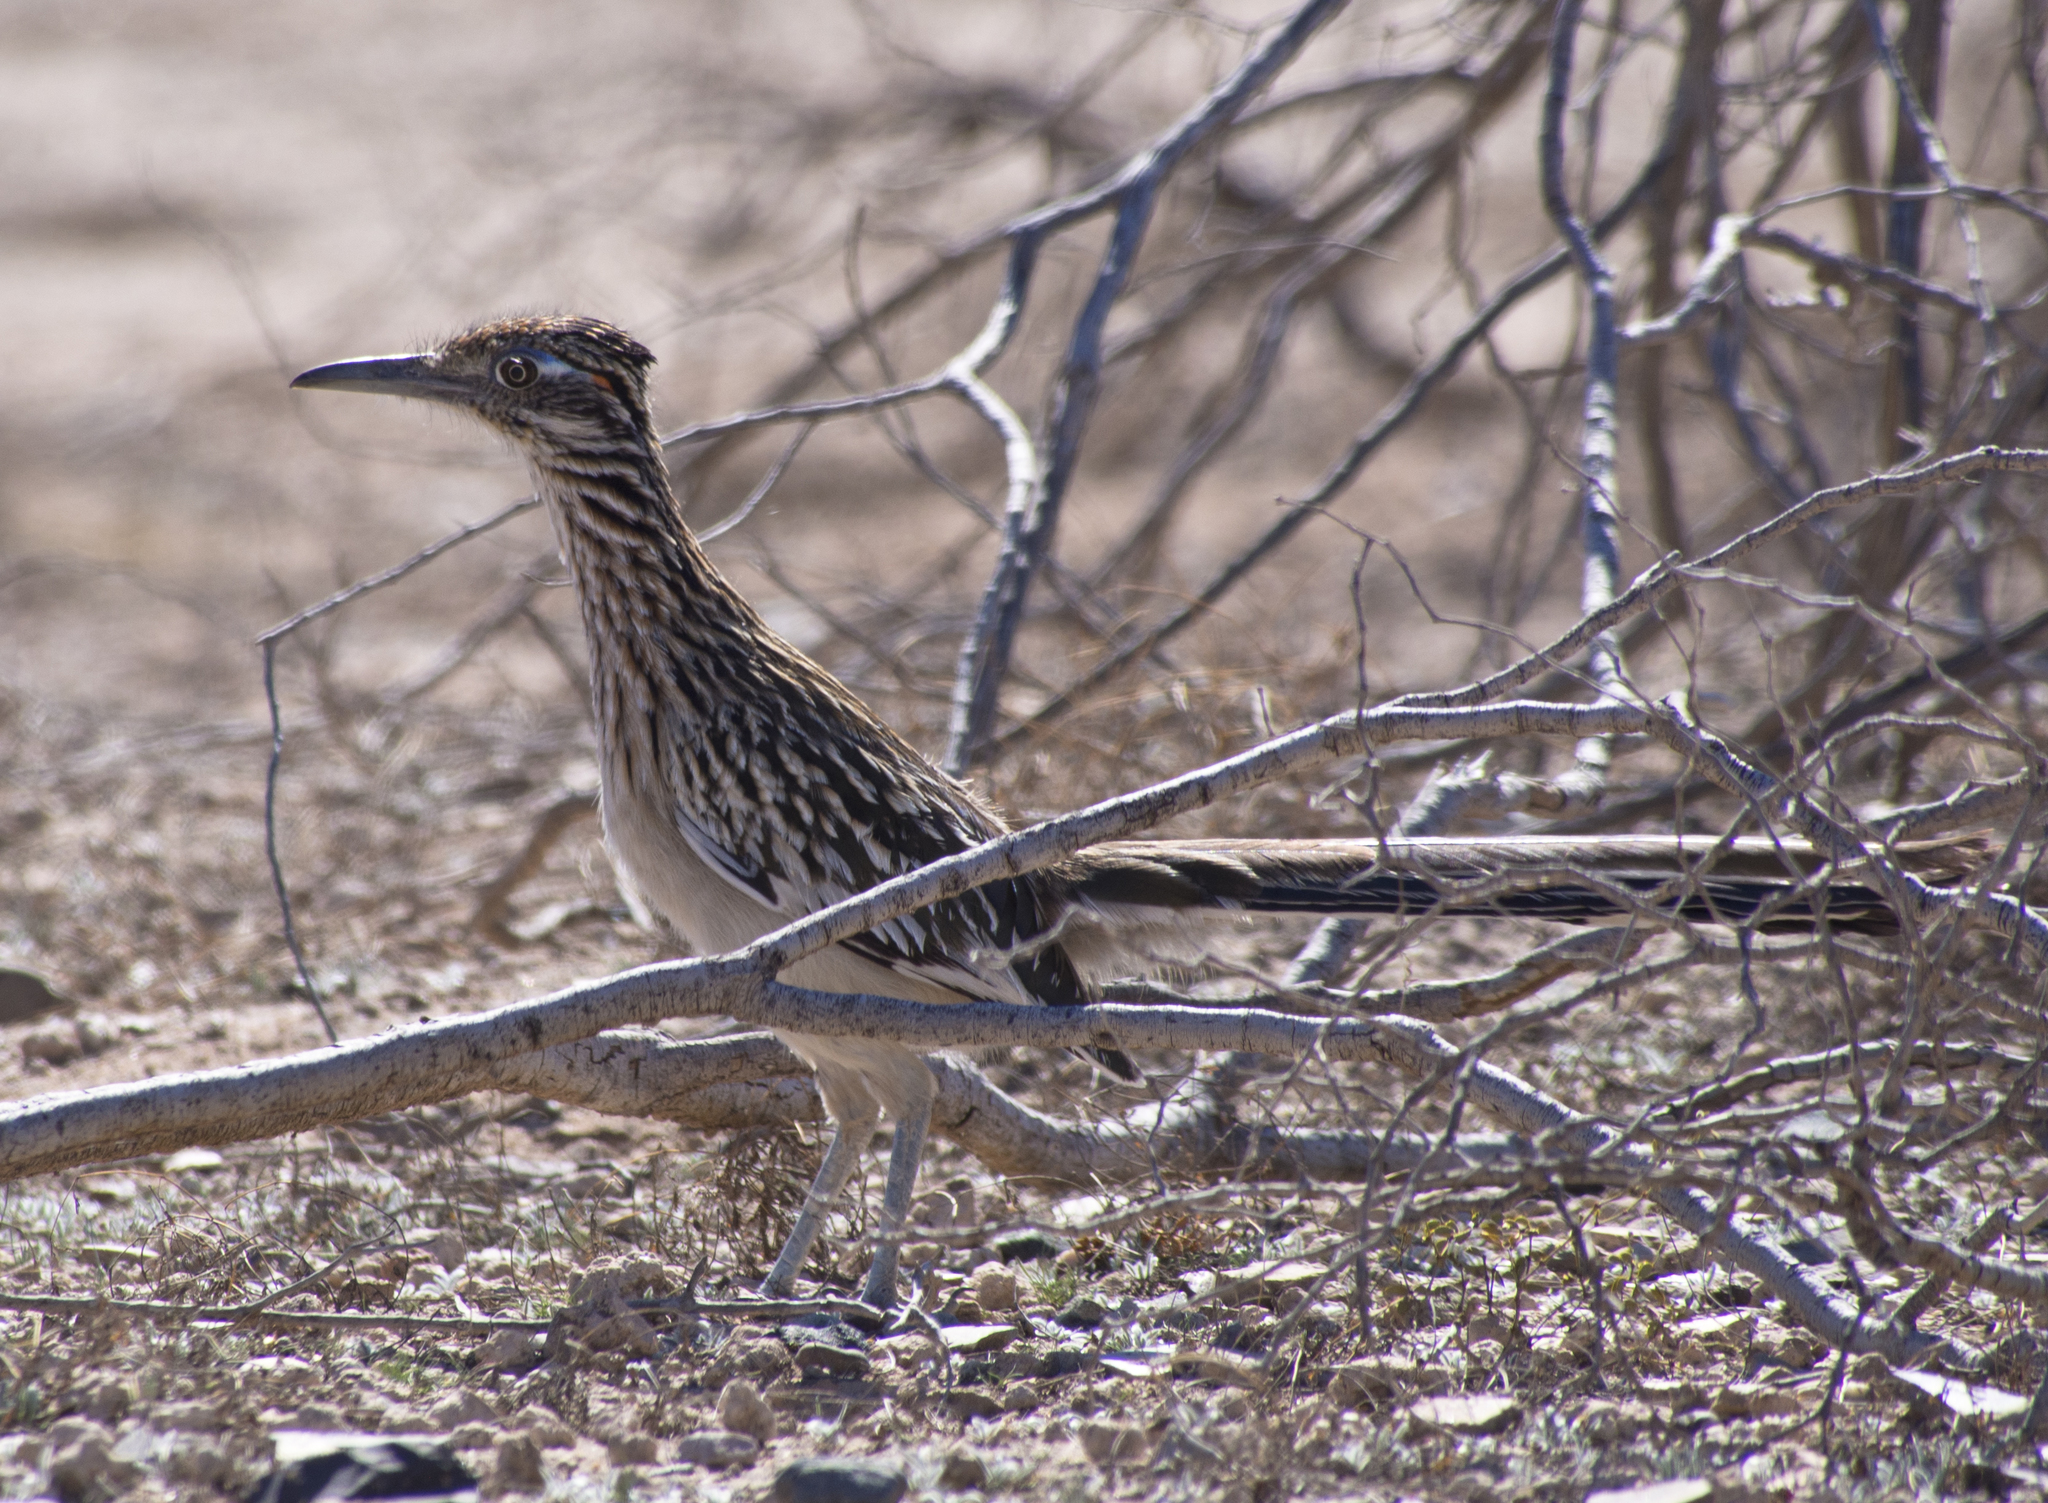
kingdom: Animalia
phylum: Chordata
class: Aves
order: Cuculiformes
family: Cuculidae
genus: Geococcyx
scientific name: Geococcyx californianus
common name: Greater roadrunner
